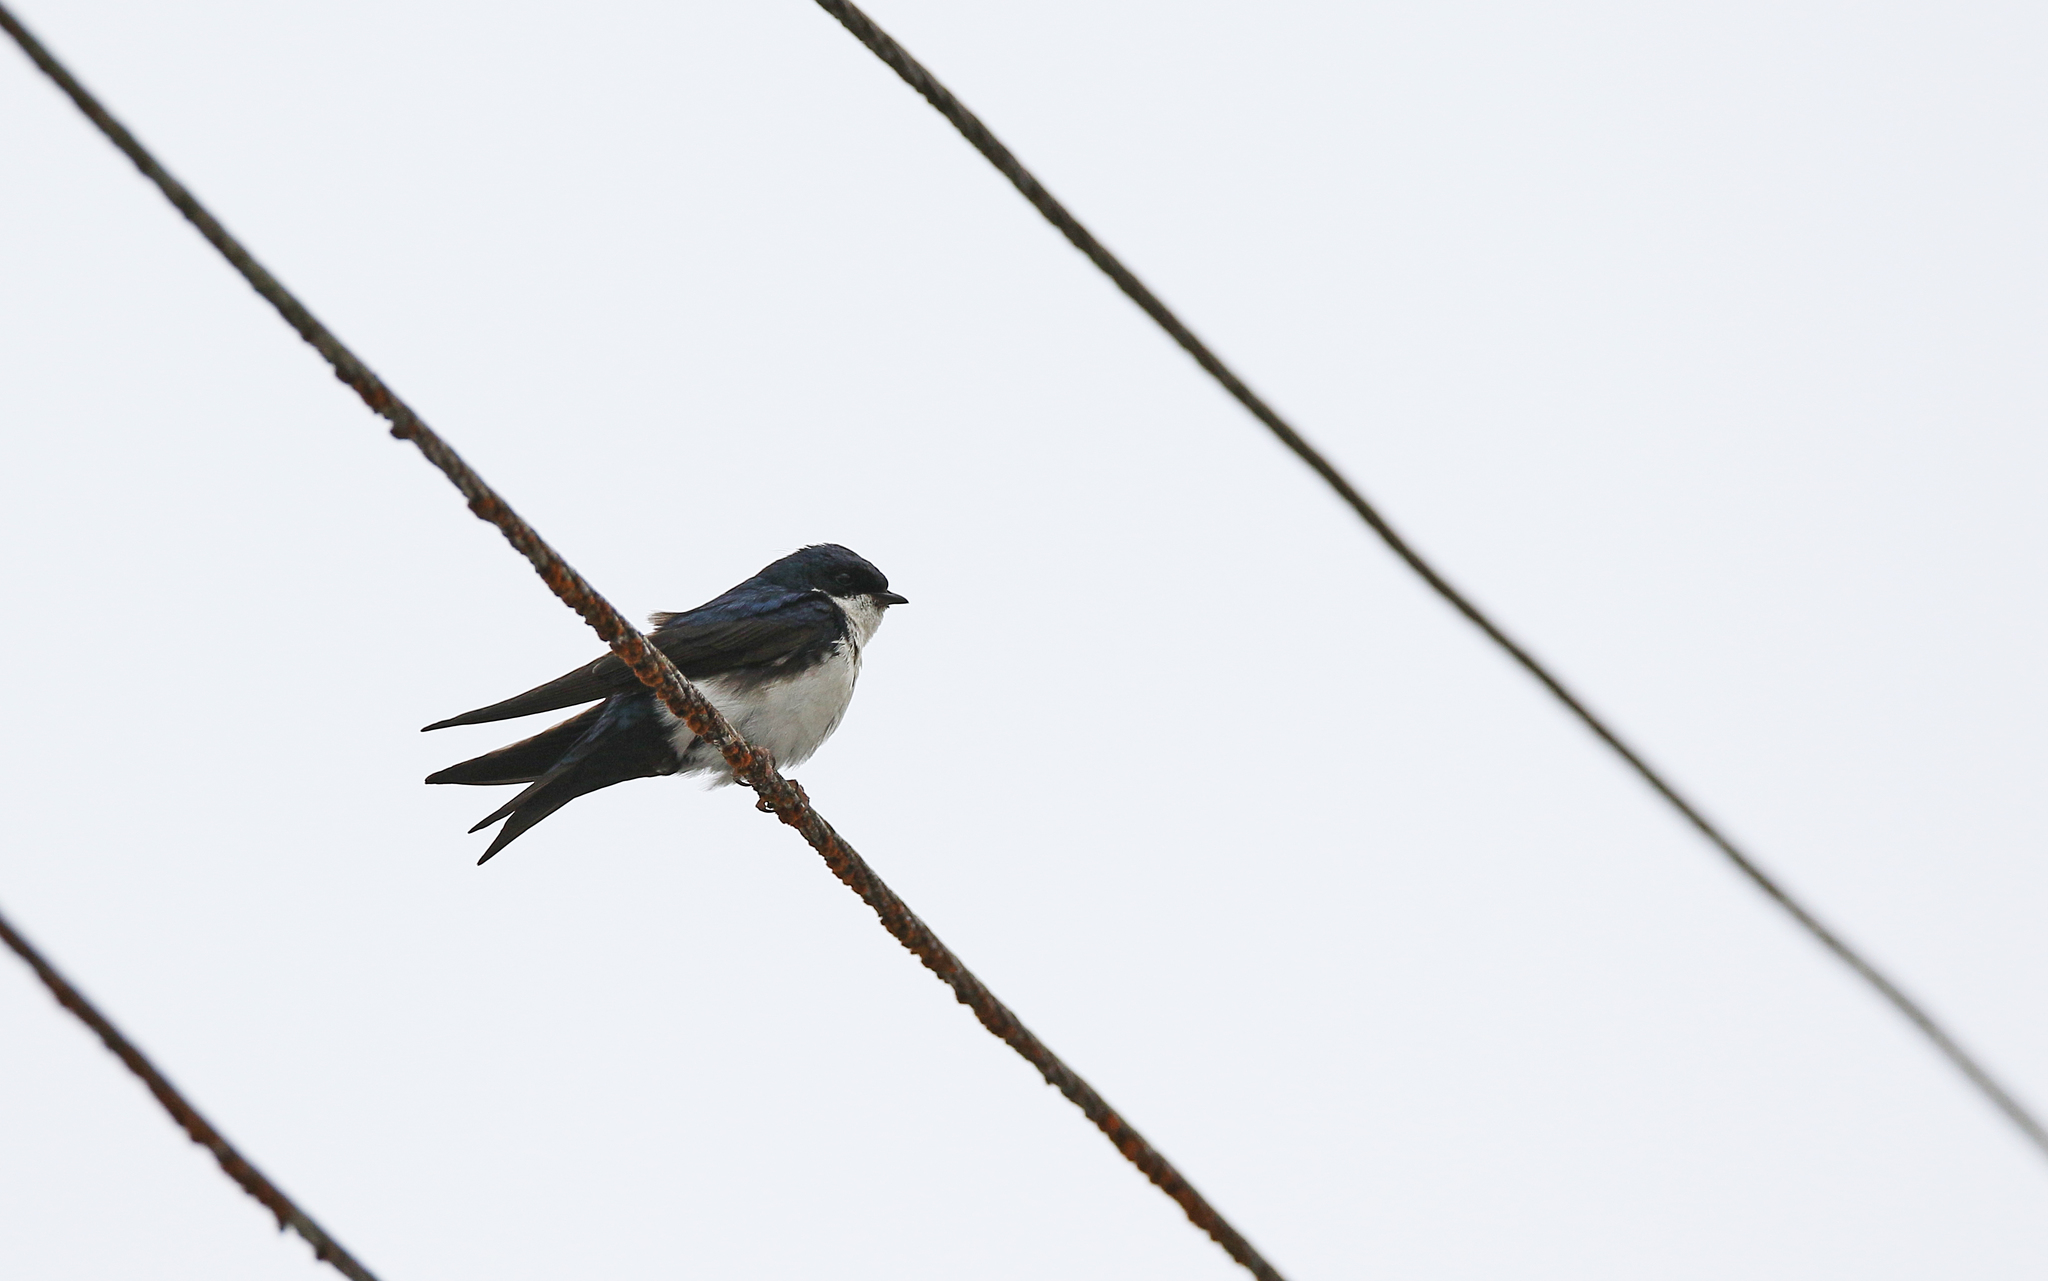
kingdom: Animalia
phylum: Chordata
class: Aves
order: Passeriformes
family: Hirundinidae
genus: Notiochelidon
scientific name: Notiochelidon cyanoleuca
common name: Blue-and-white swallow
